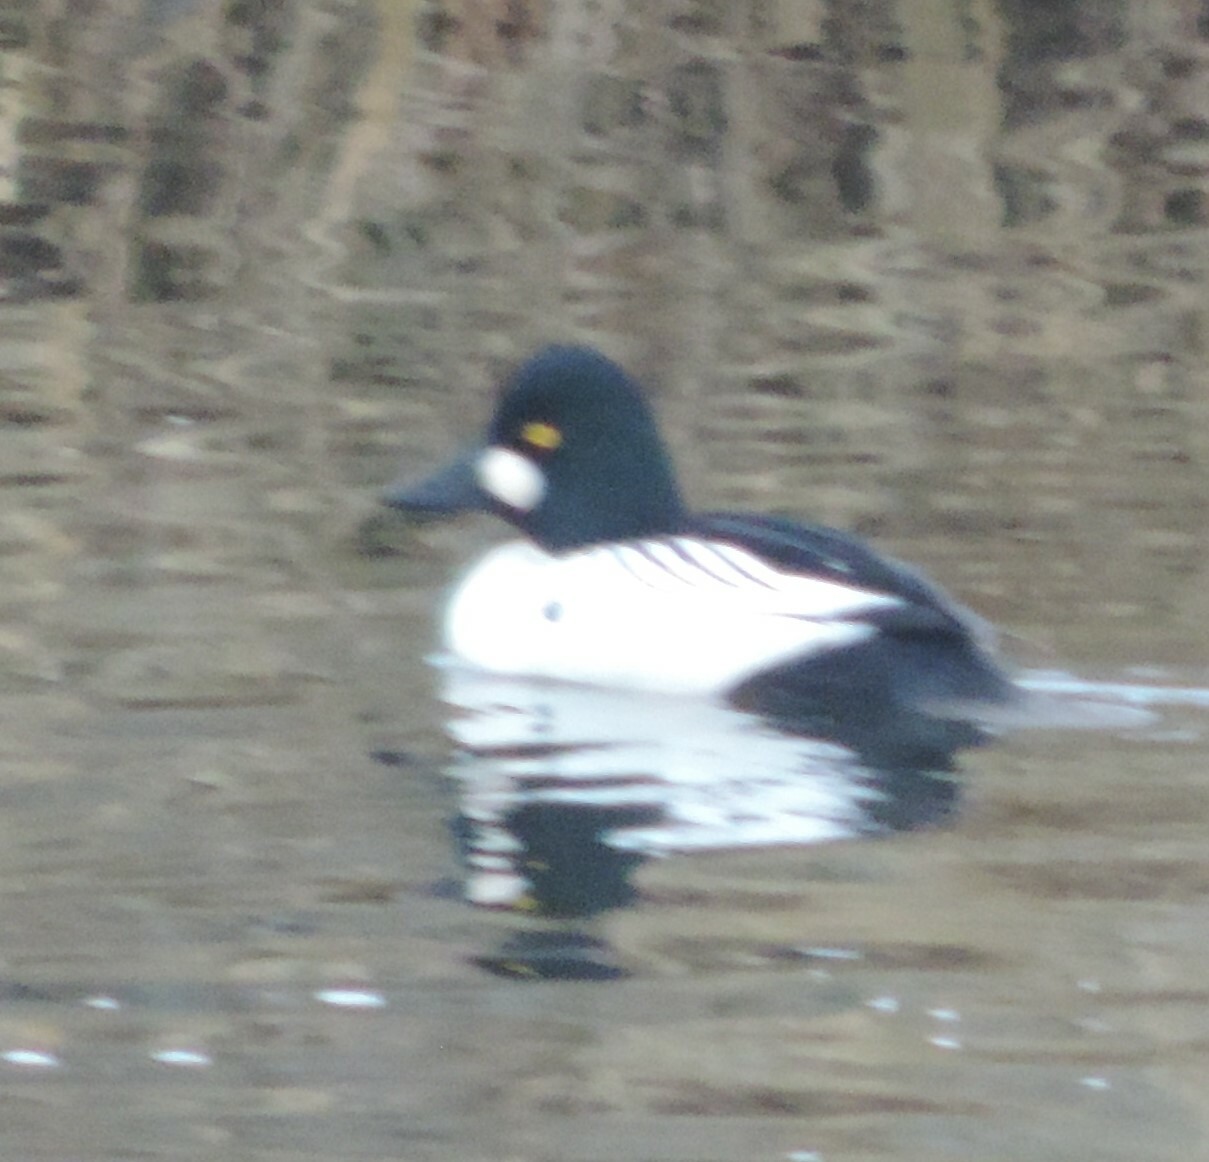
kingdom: Animalia
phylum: Chordata
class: Aves
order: Anseriformes
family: Anatidae
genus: Bucephala
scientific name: Bucephala clangula
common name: Common goldeneye
